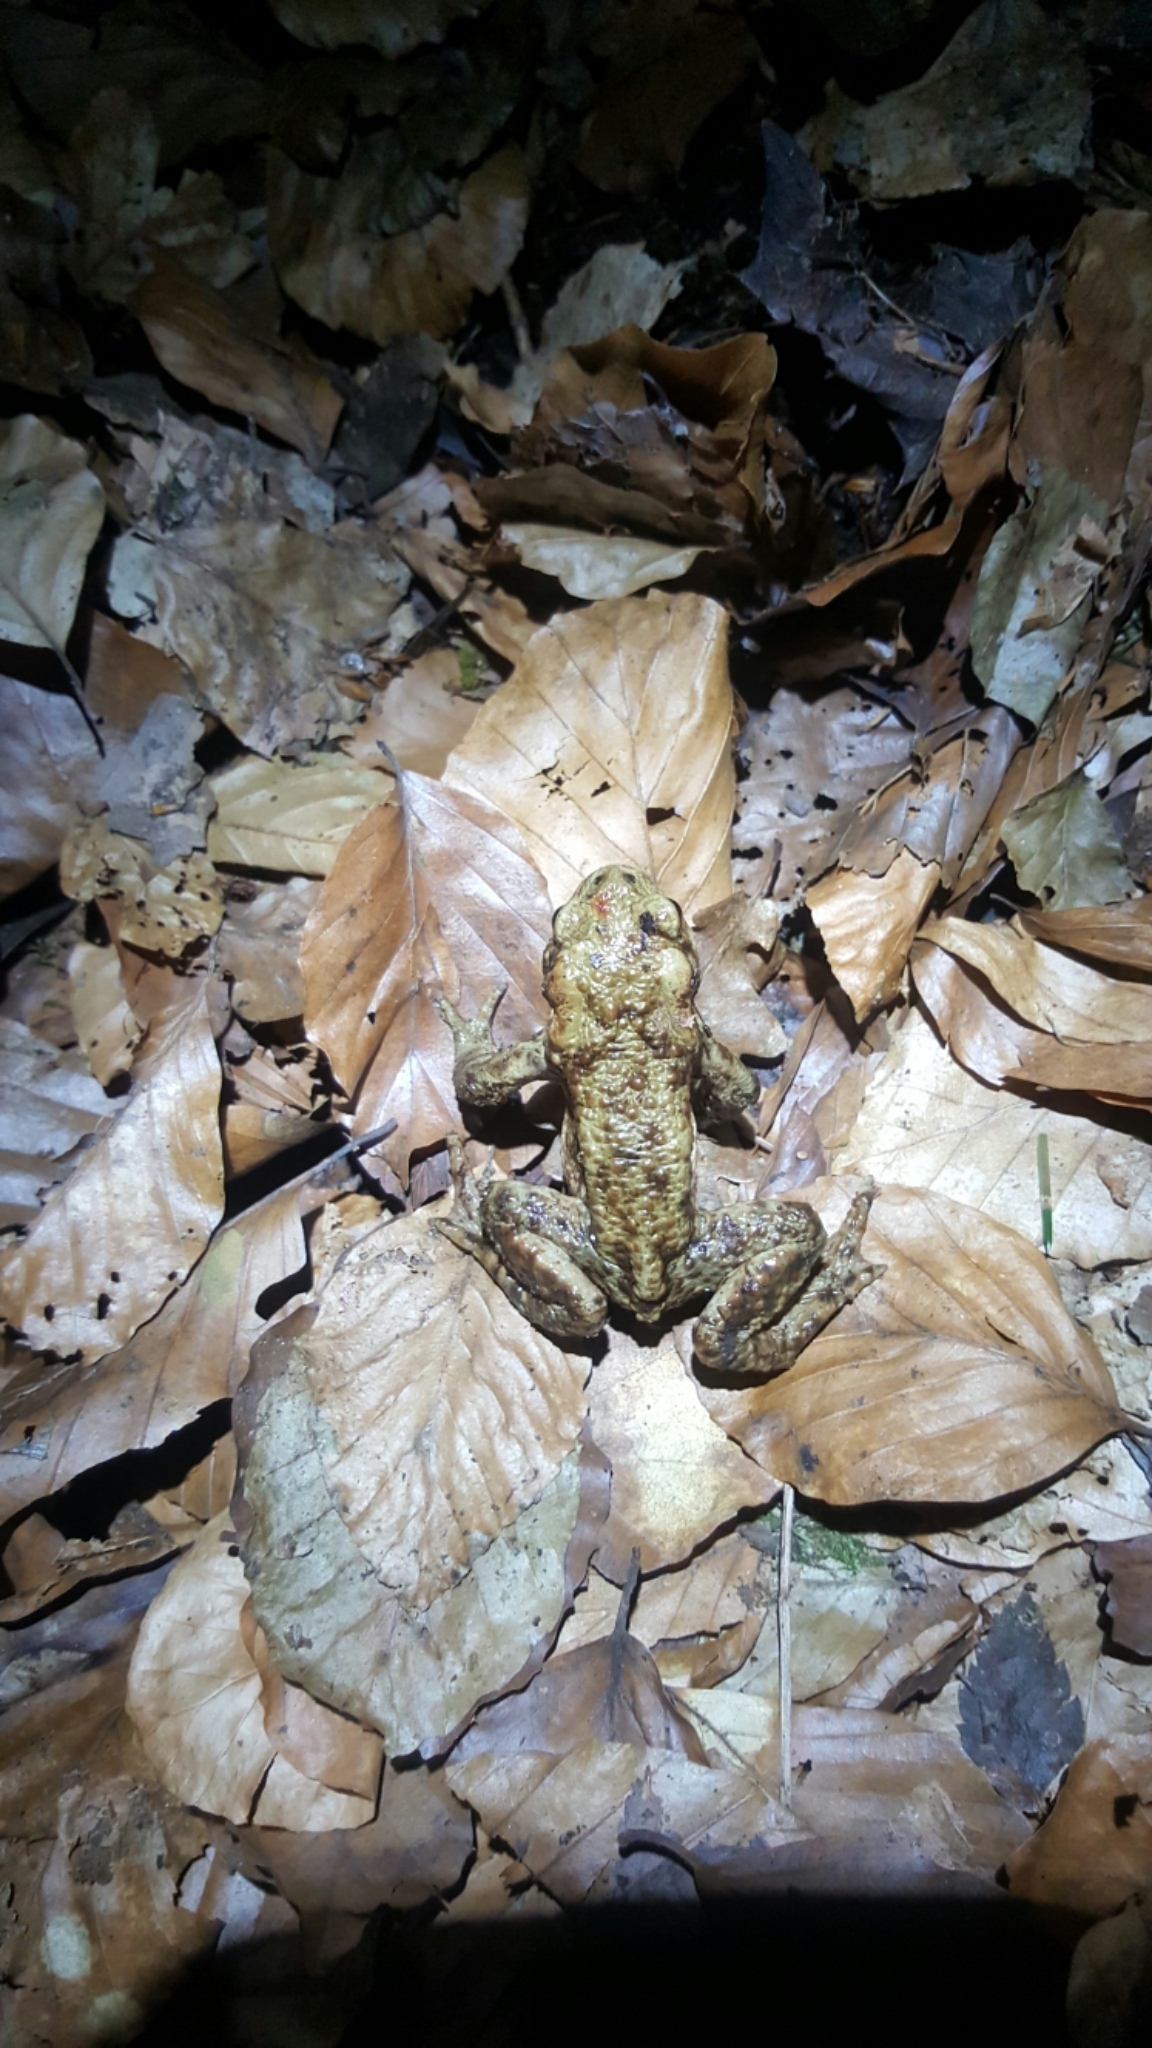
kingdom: Animalia
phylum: Chordata
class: Amphibia
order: Anura
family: Bufonidae
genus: Bufo
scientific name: Bufo bufo
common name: Common toad
